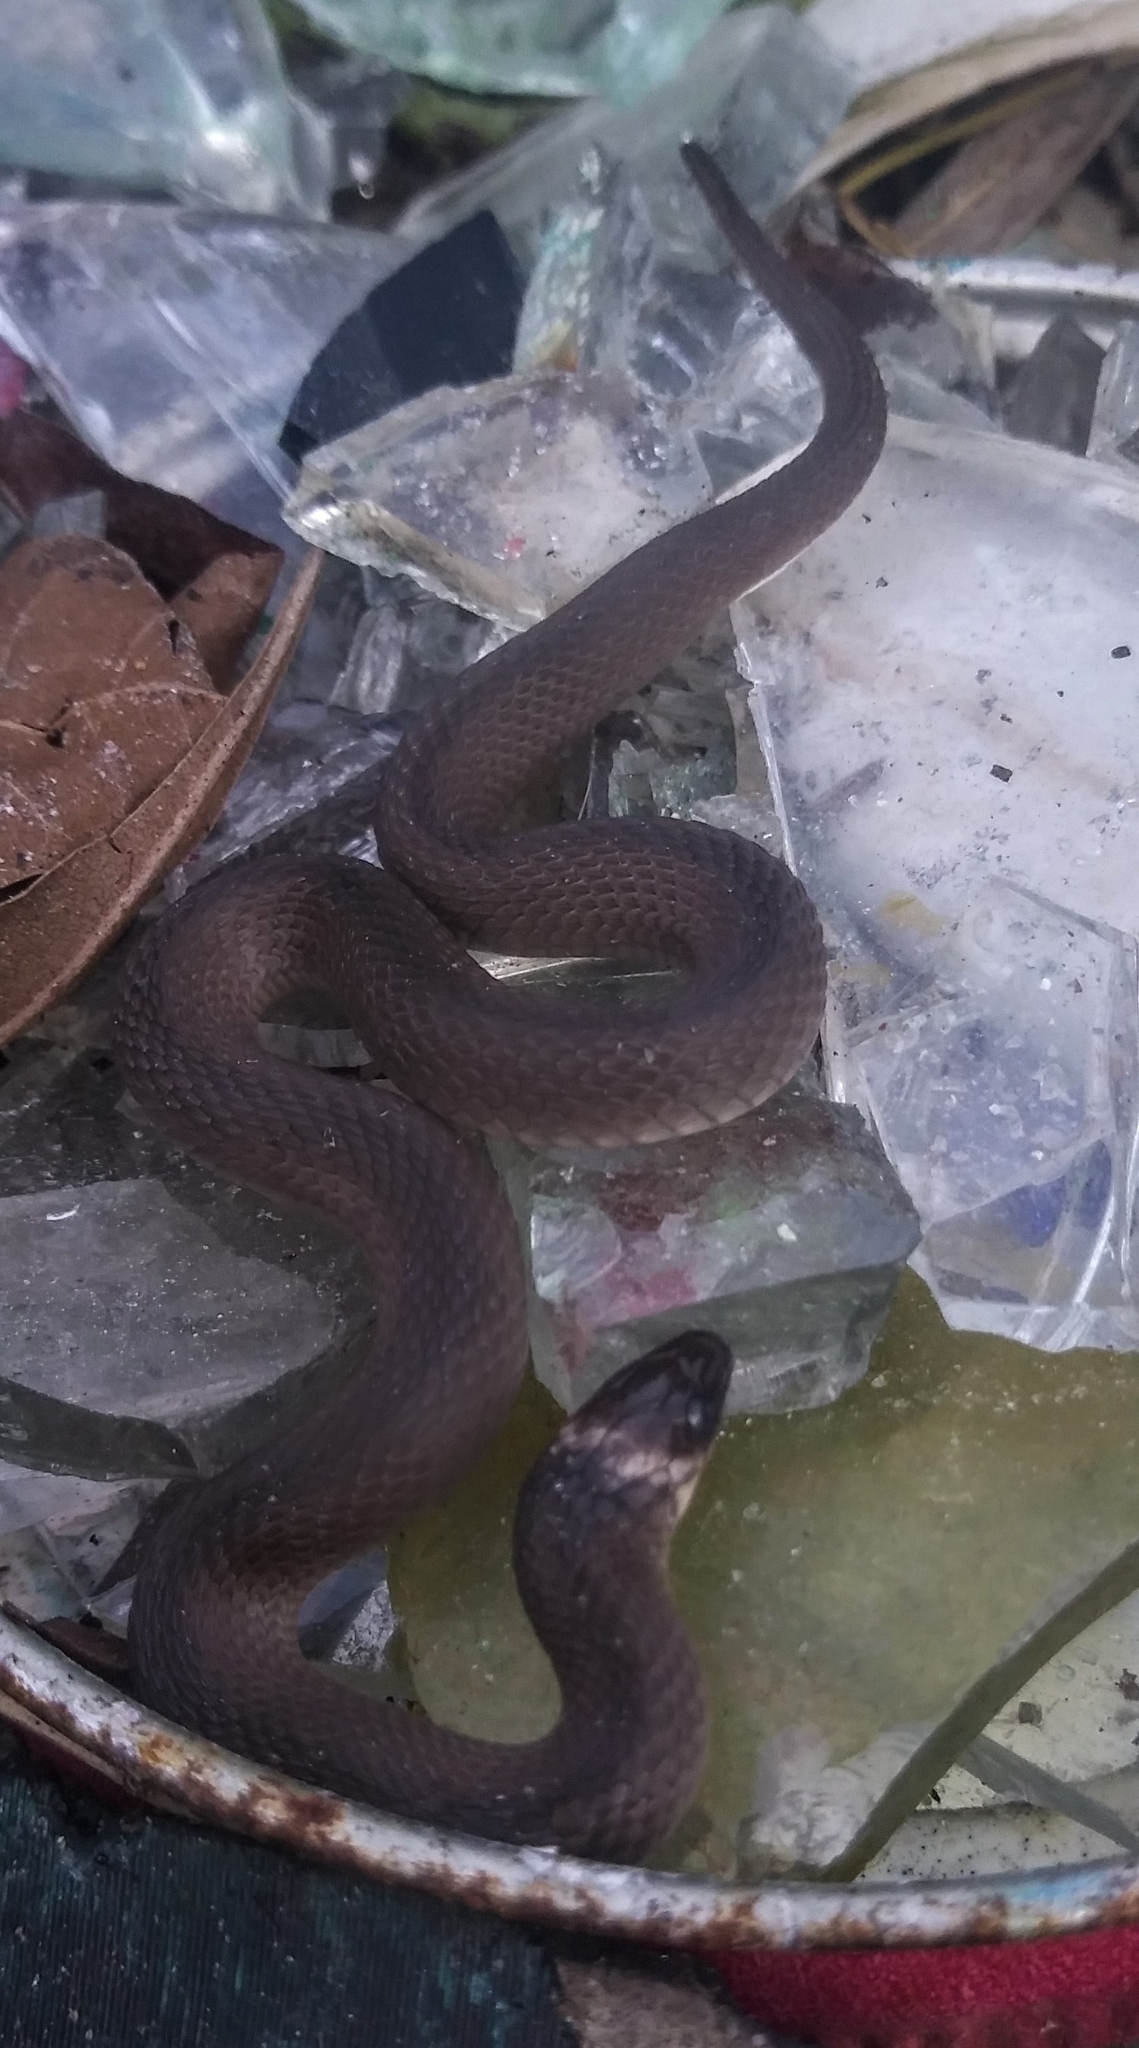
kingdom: Animalia
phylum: Chordata
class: Squamata
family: Colubridae
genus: Haldea
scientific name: Haldea striatula
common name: Rough earth snake
